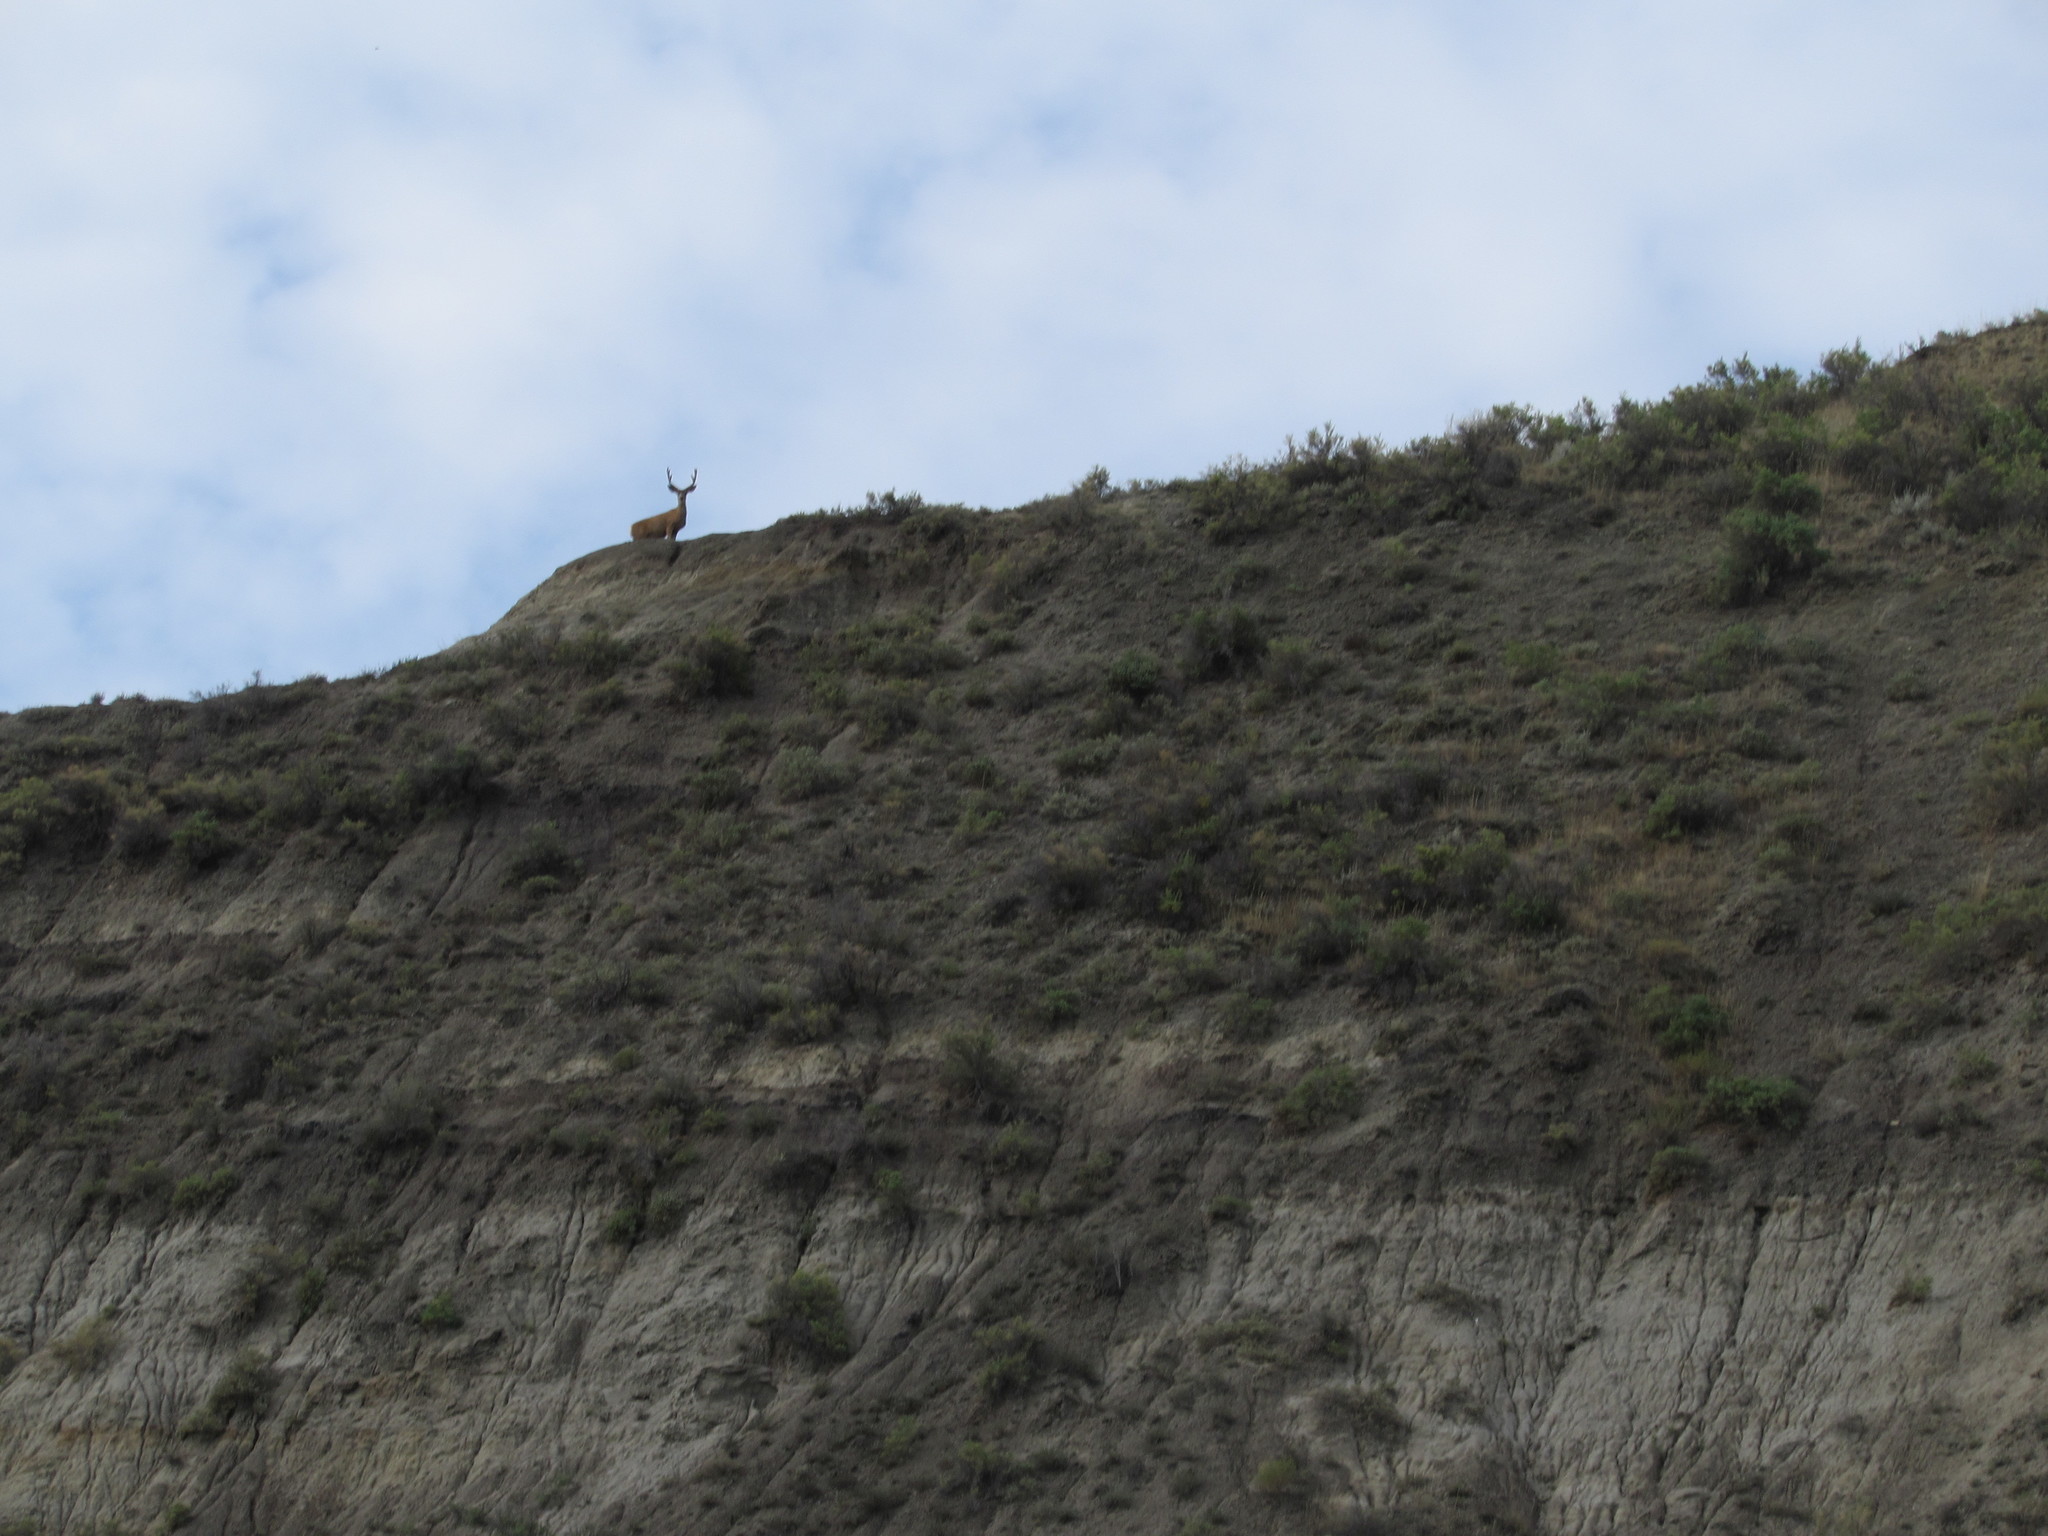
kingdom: Animalia
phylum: Chordata
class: Mammalia
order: Artiodactyla
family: Cervidae
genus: Odocoileus
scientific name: Odocoileus hemionus
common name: Mule deer
